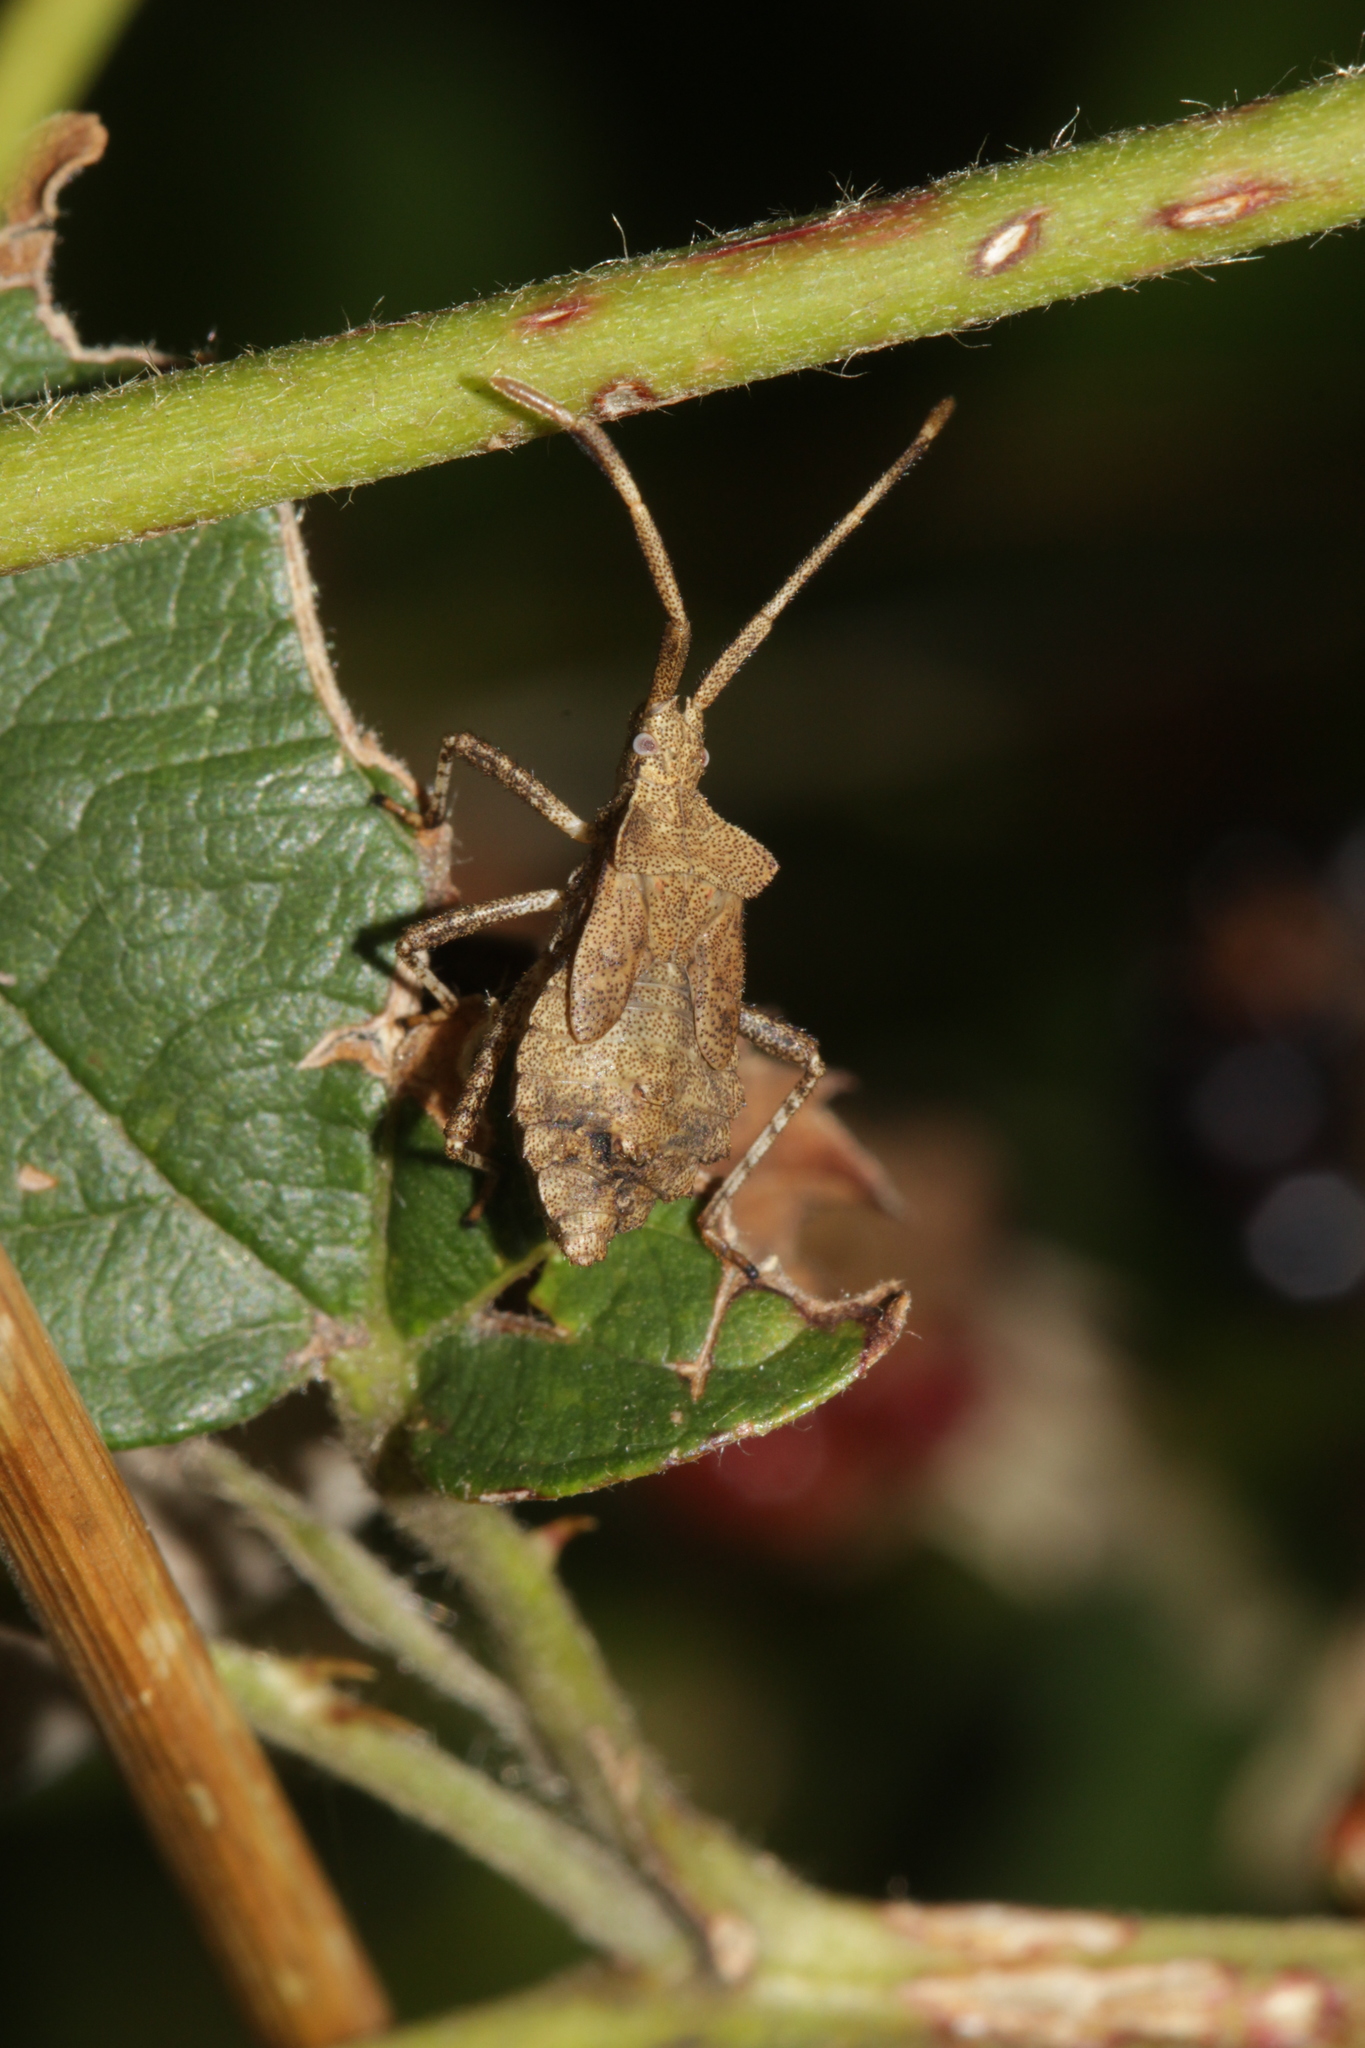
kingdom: Animalia
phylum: Arthropoda
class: Insecta
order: Hemiptera
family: Coreidae
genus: Coreus
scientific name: Coreus marginatus
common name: Dock bug
